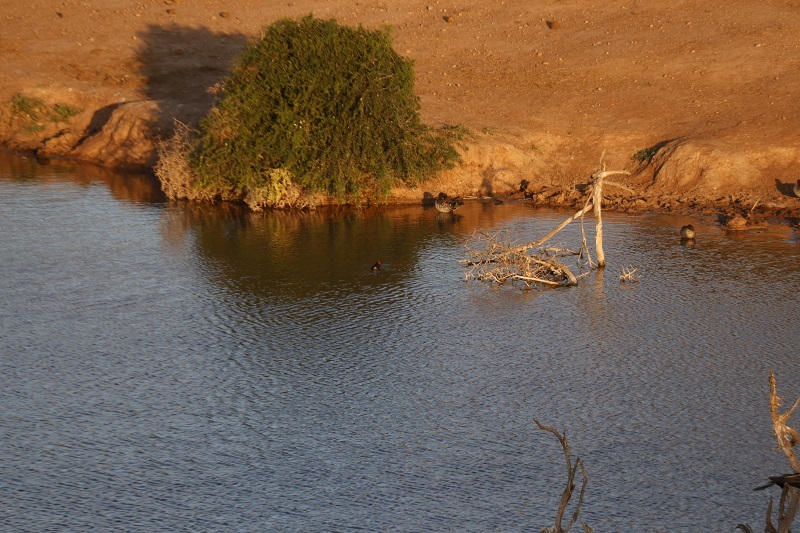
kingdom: Animalia
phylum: Chordata
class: Aves
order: Podicipediformes
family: Podicipedidae
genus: Tachybaptus
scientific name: Tachybaptus ruficollis
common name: Little grebe
